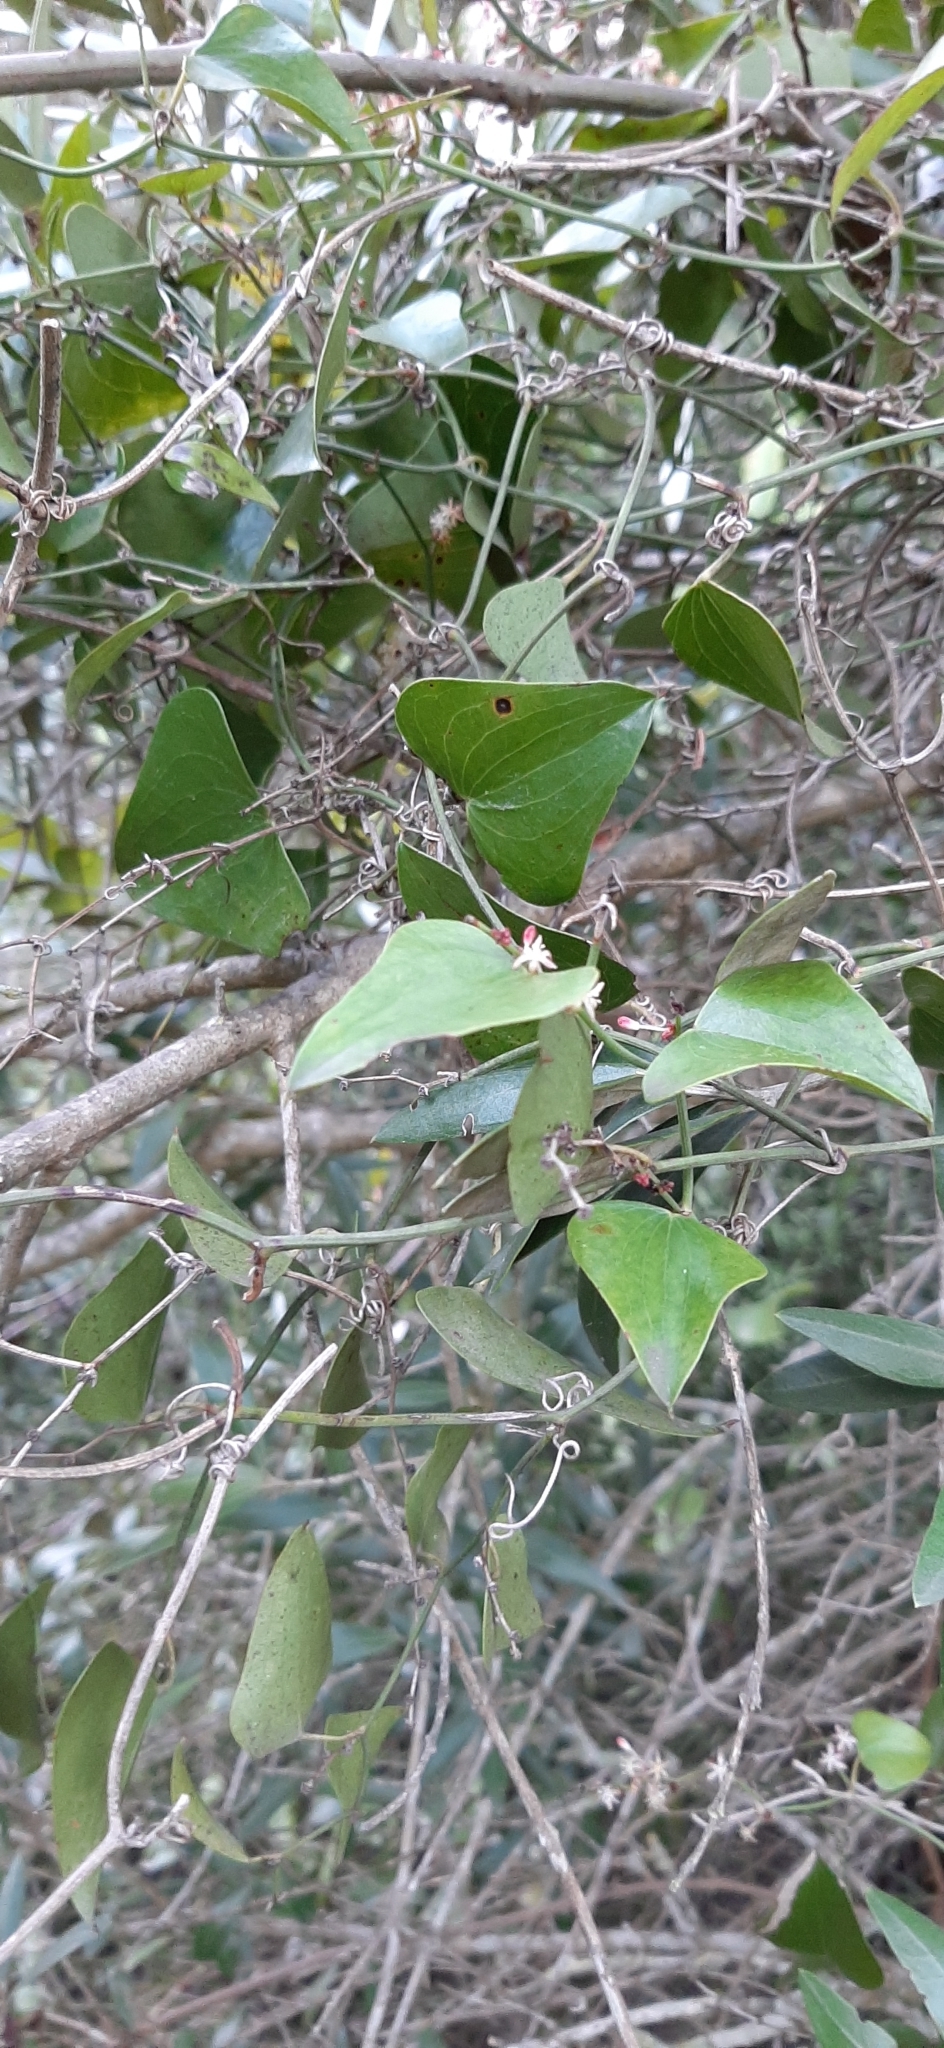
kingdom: Plantae
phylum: Tracheophyta
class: Liliopsida
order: Liliales
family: Smilacaceae
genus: Smilax
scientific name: Smilax aspera
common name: Common smilax
